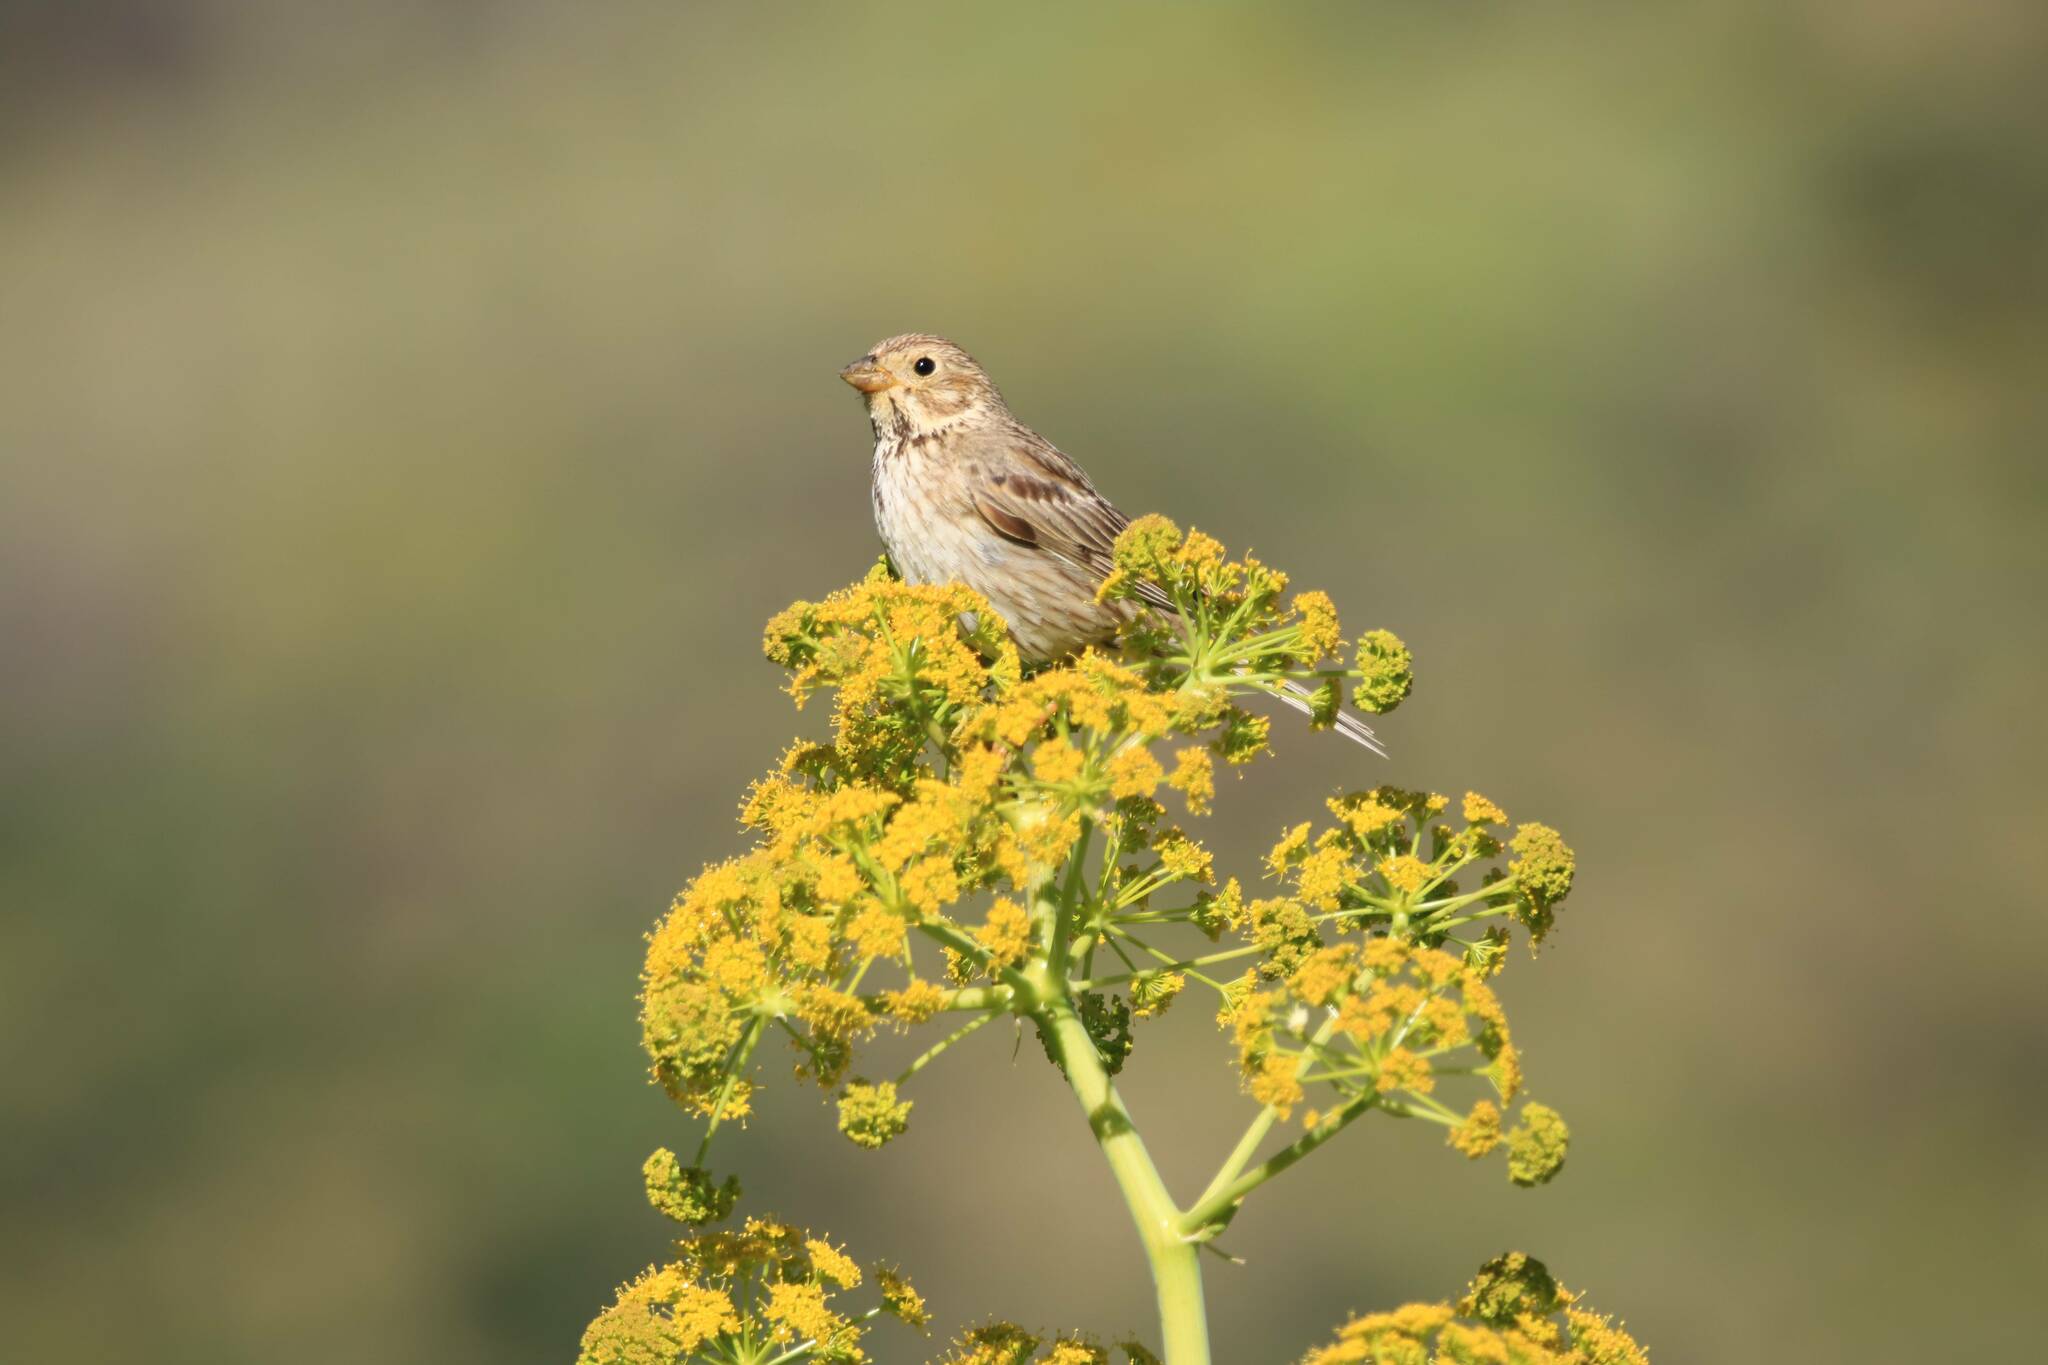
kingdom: Animalia
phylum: Chordata
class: Aves
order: Passeriformes
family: Emberizidae
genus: Emberiza
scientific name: Emberiza calandra
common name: Corn bunting
